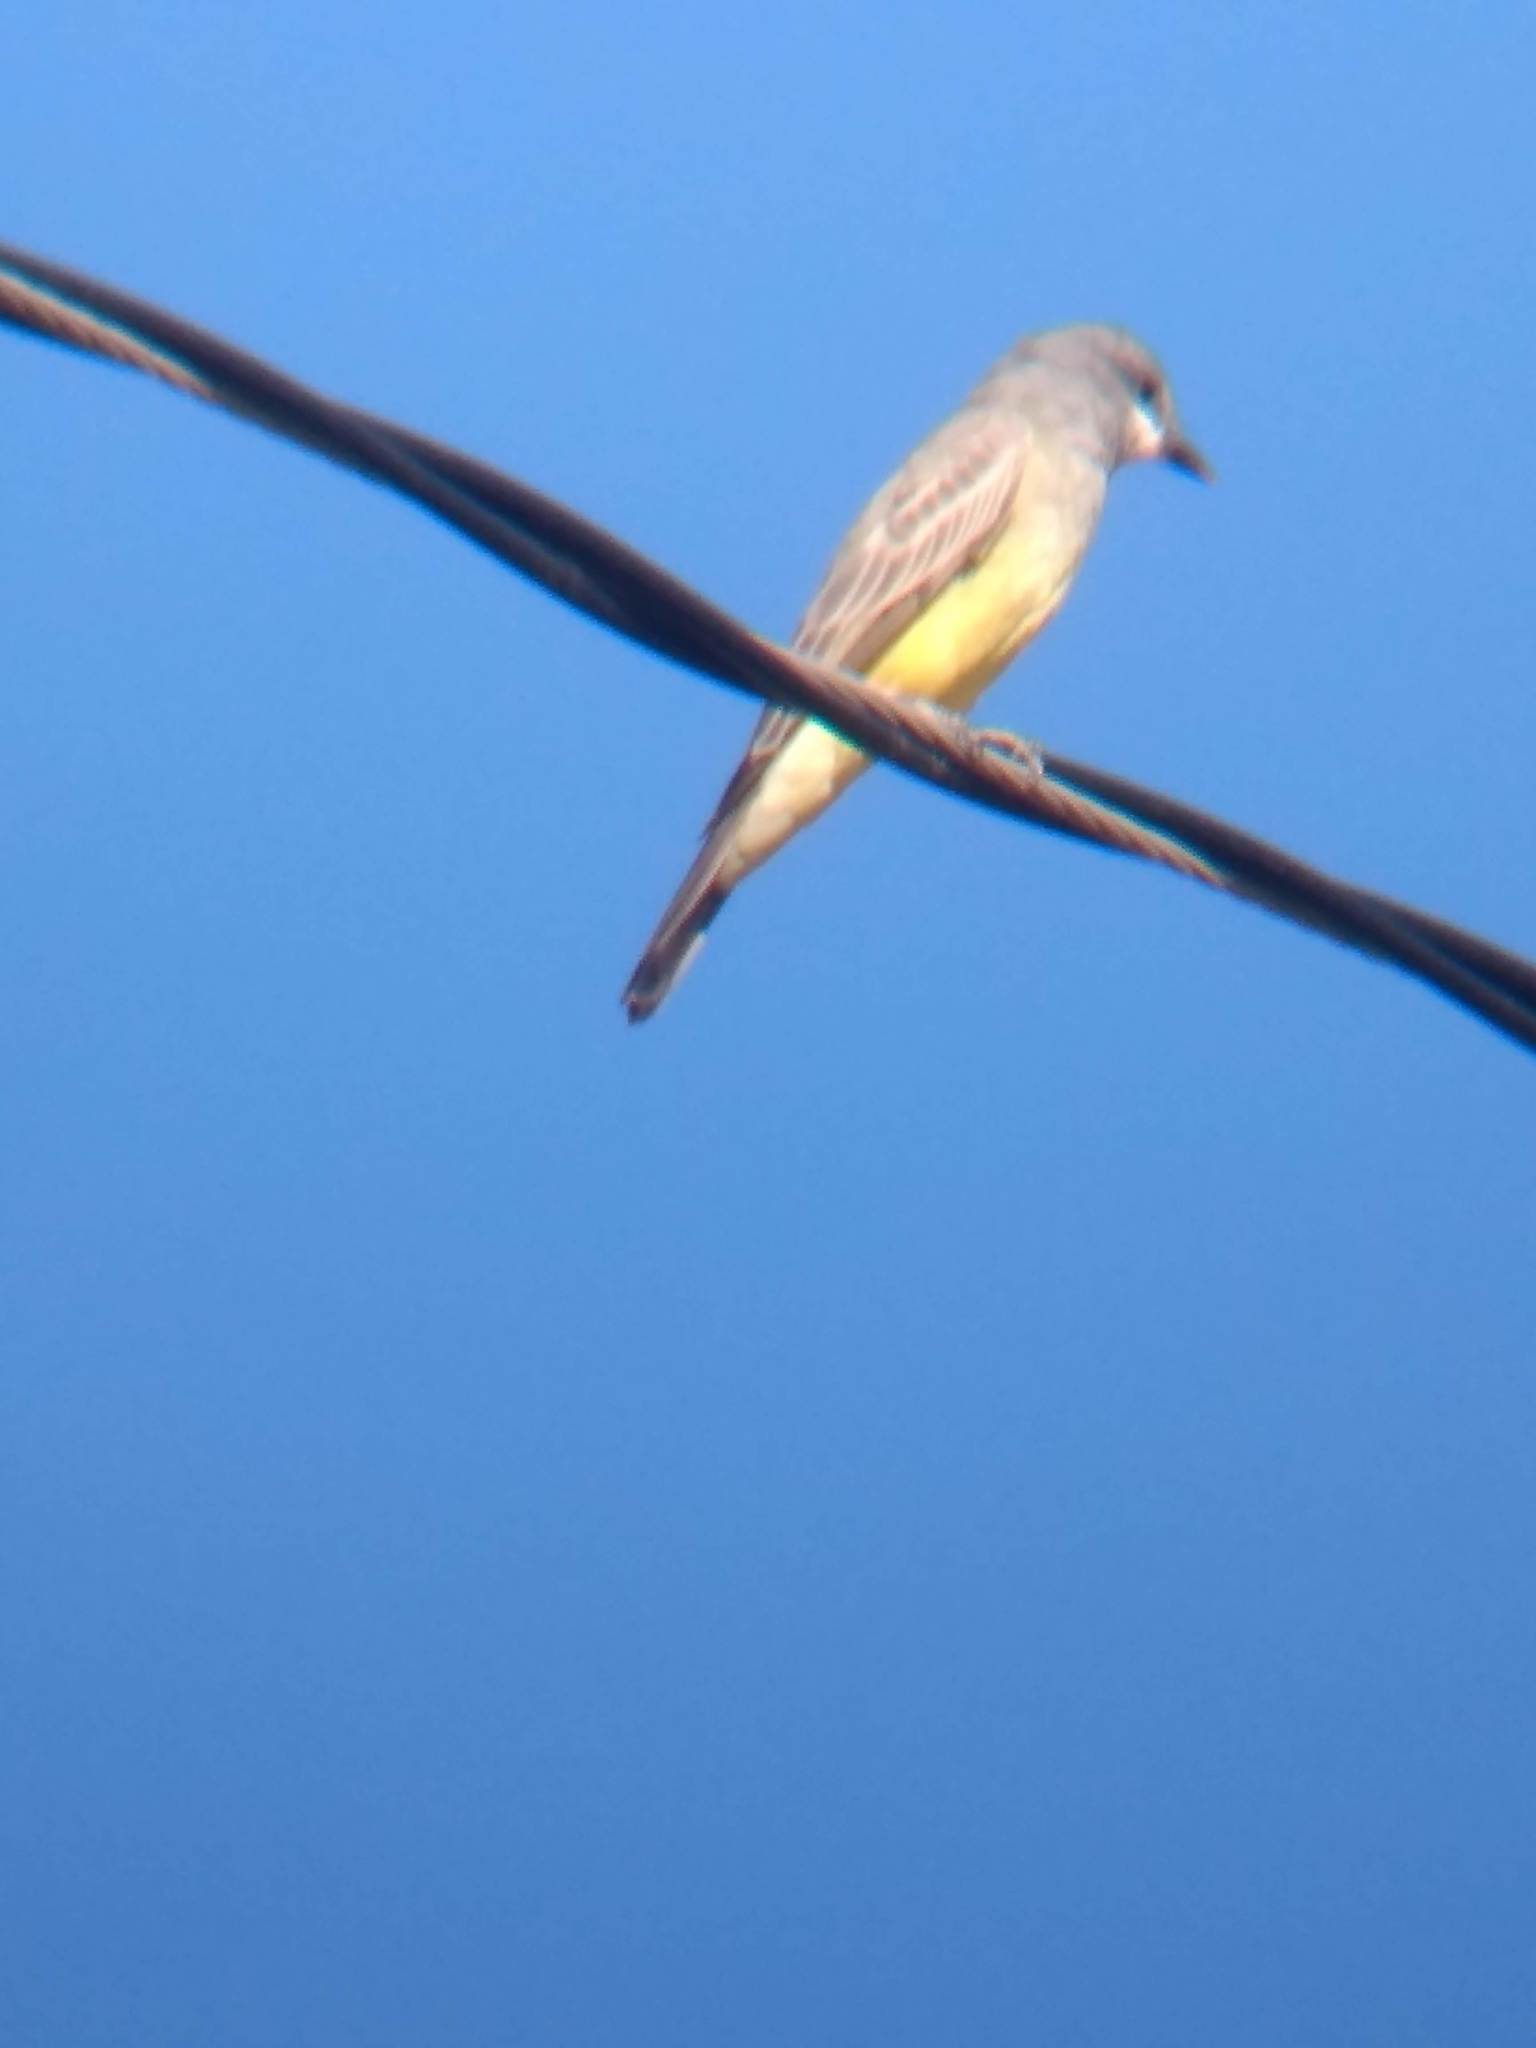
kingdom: Animalia
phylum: Chordata
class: Aves
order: Passeriformes
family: Tyrannidae
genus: Tyrannus
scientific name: Tyrannus vociferans
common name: Cassin's kingbird
